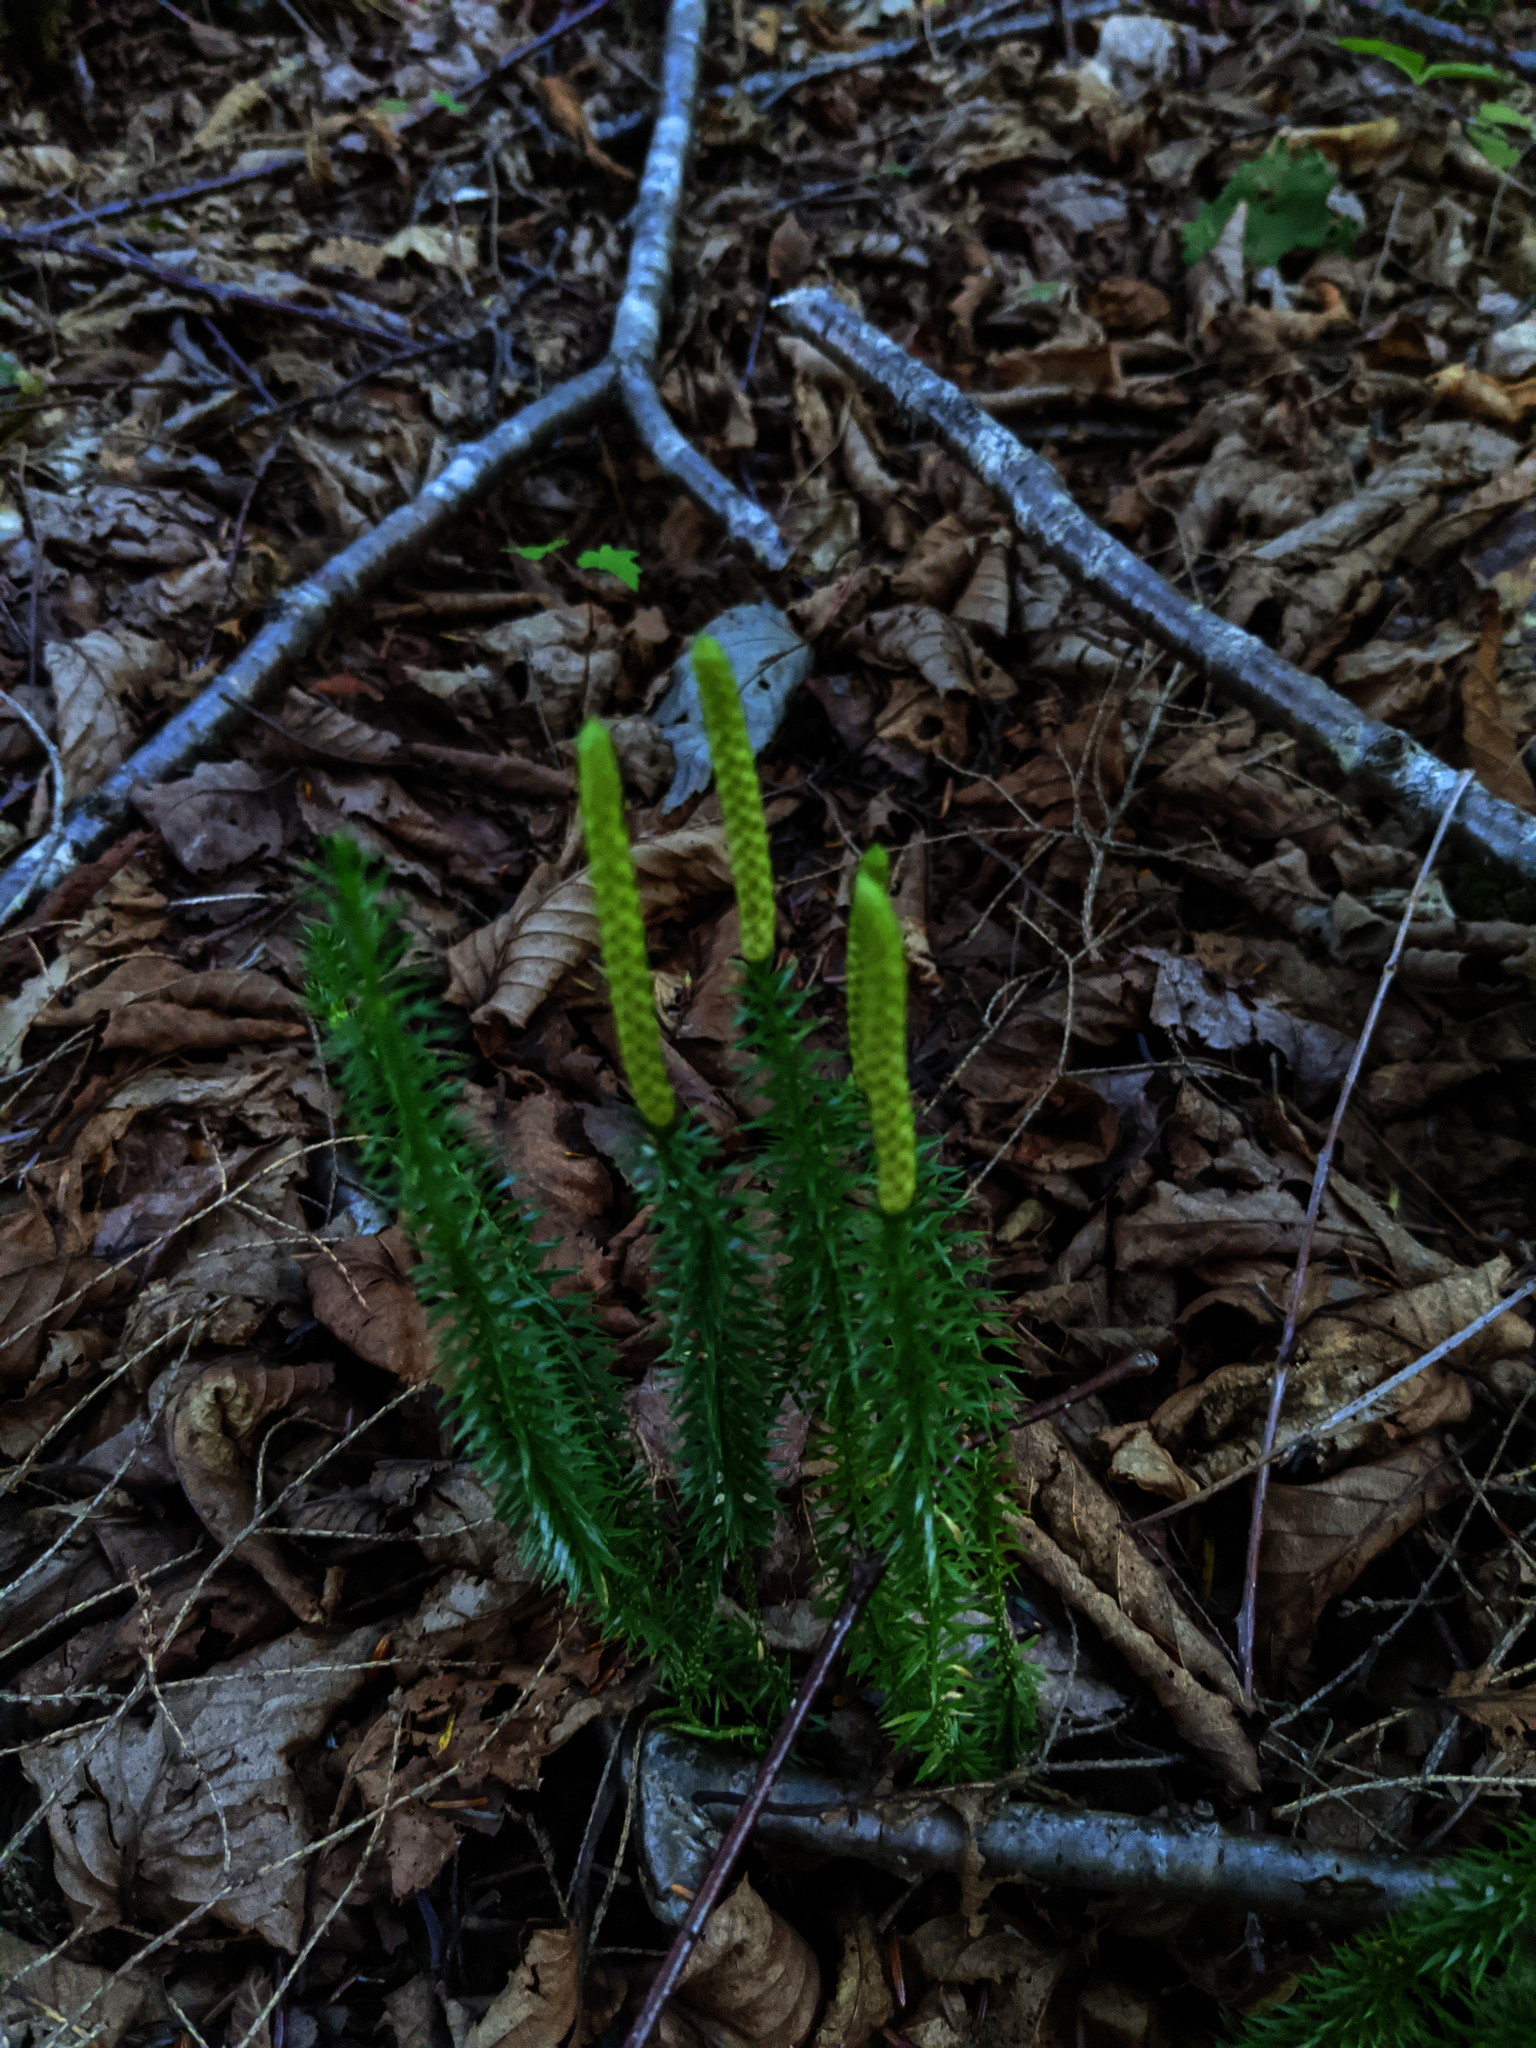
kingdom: Plantae
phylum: Tracheophyta
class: Lycopodiopsida
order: Lycopodiales
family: Lycopodiaceae
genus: Spinulum
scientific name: Spinulum annotinum
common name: Interrupted club-moss
